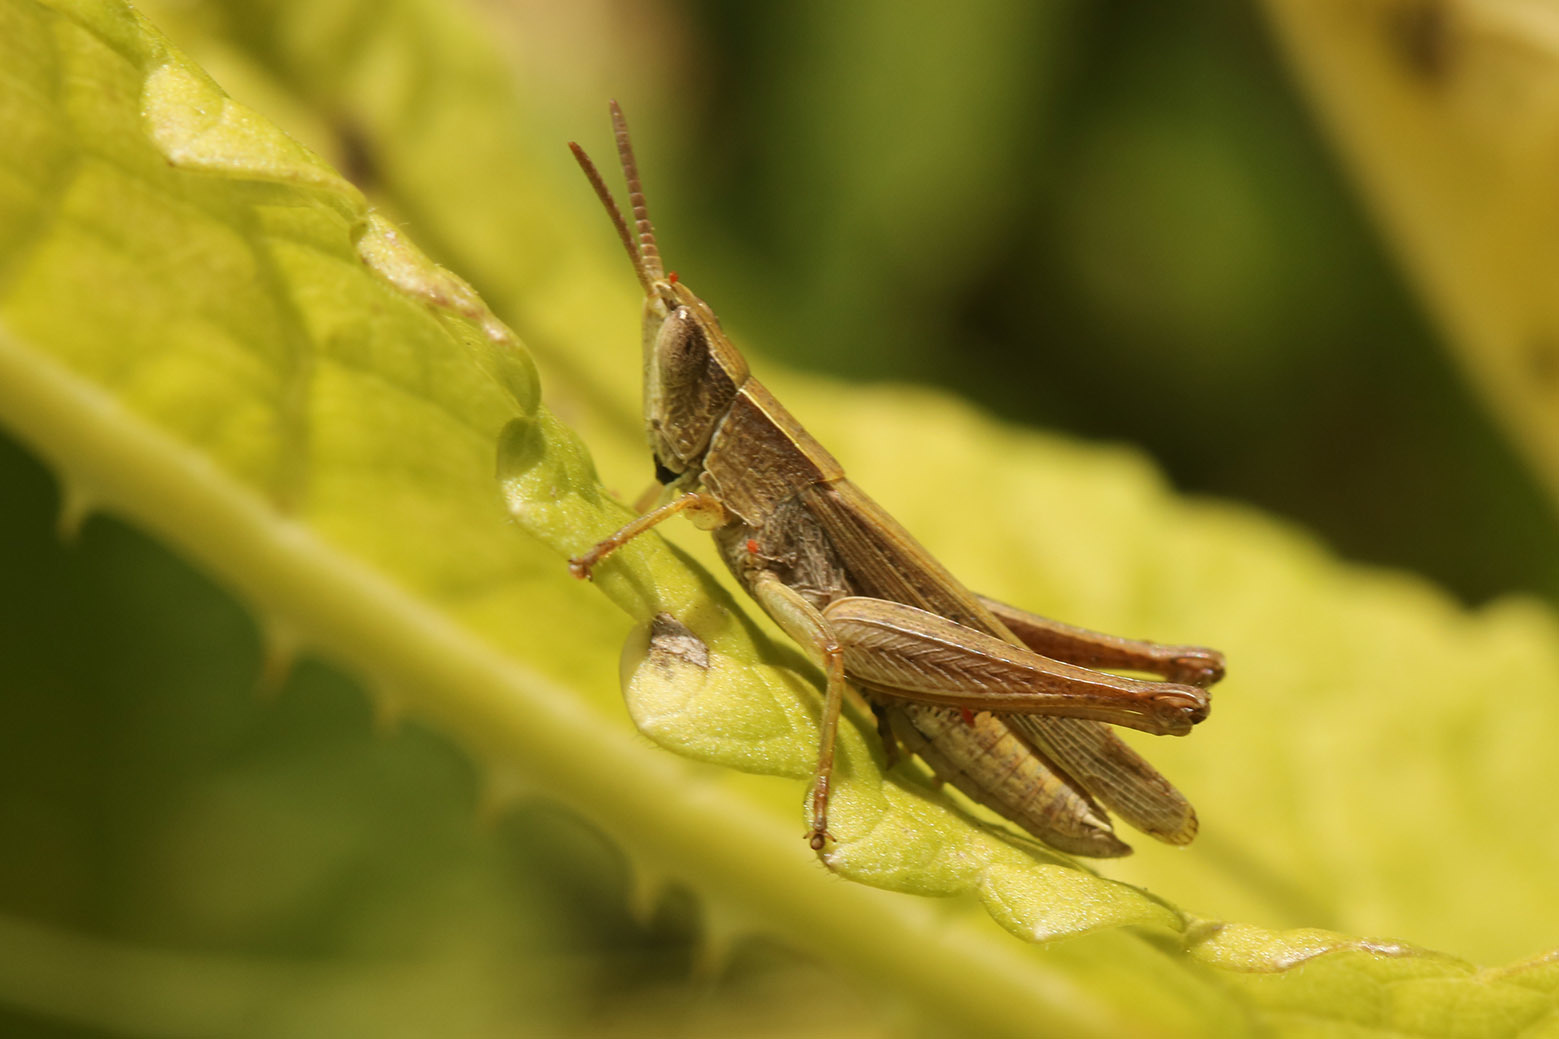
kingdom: Animalia
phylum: Arthropoda
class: Insecta
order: Orthoptera
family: Acrididae
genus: Laplatacris
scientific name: Laplatacris dispar
